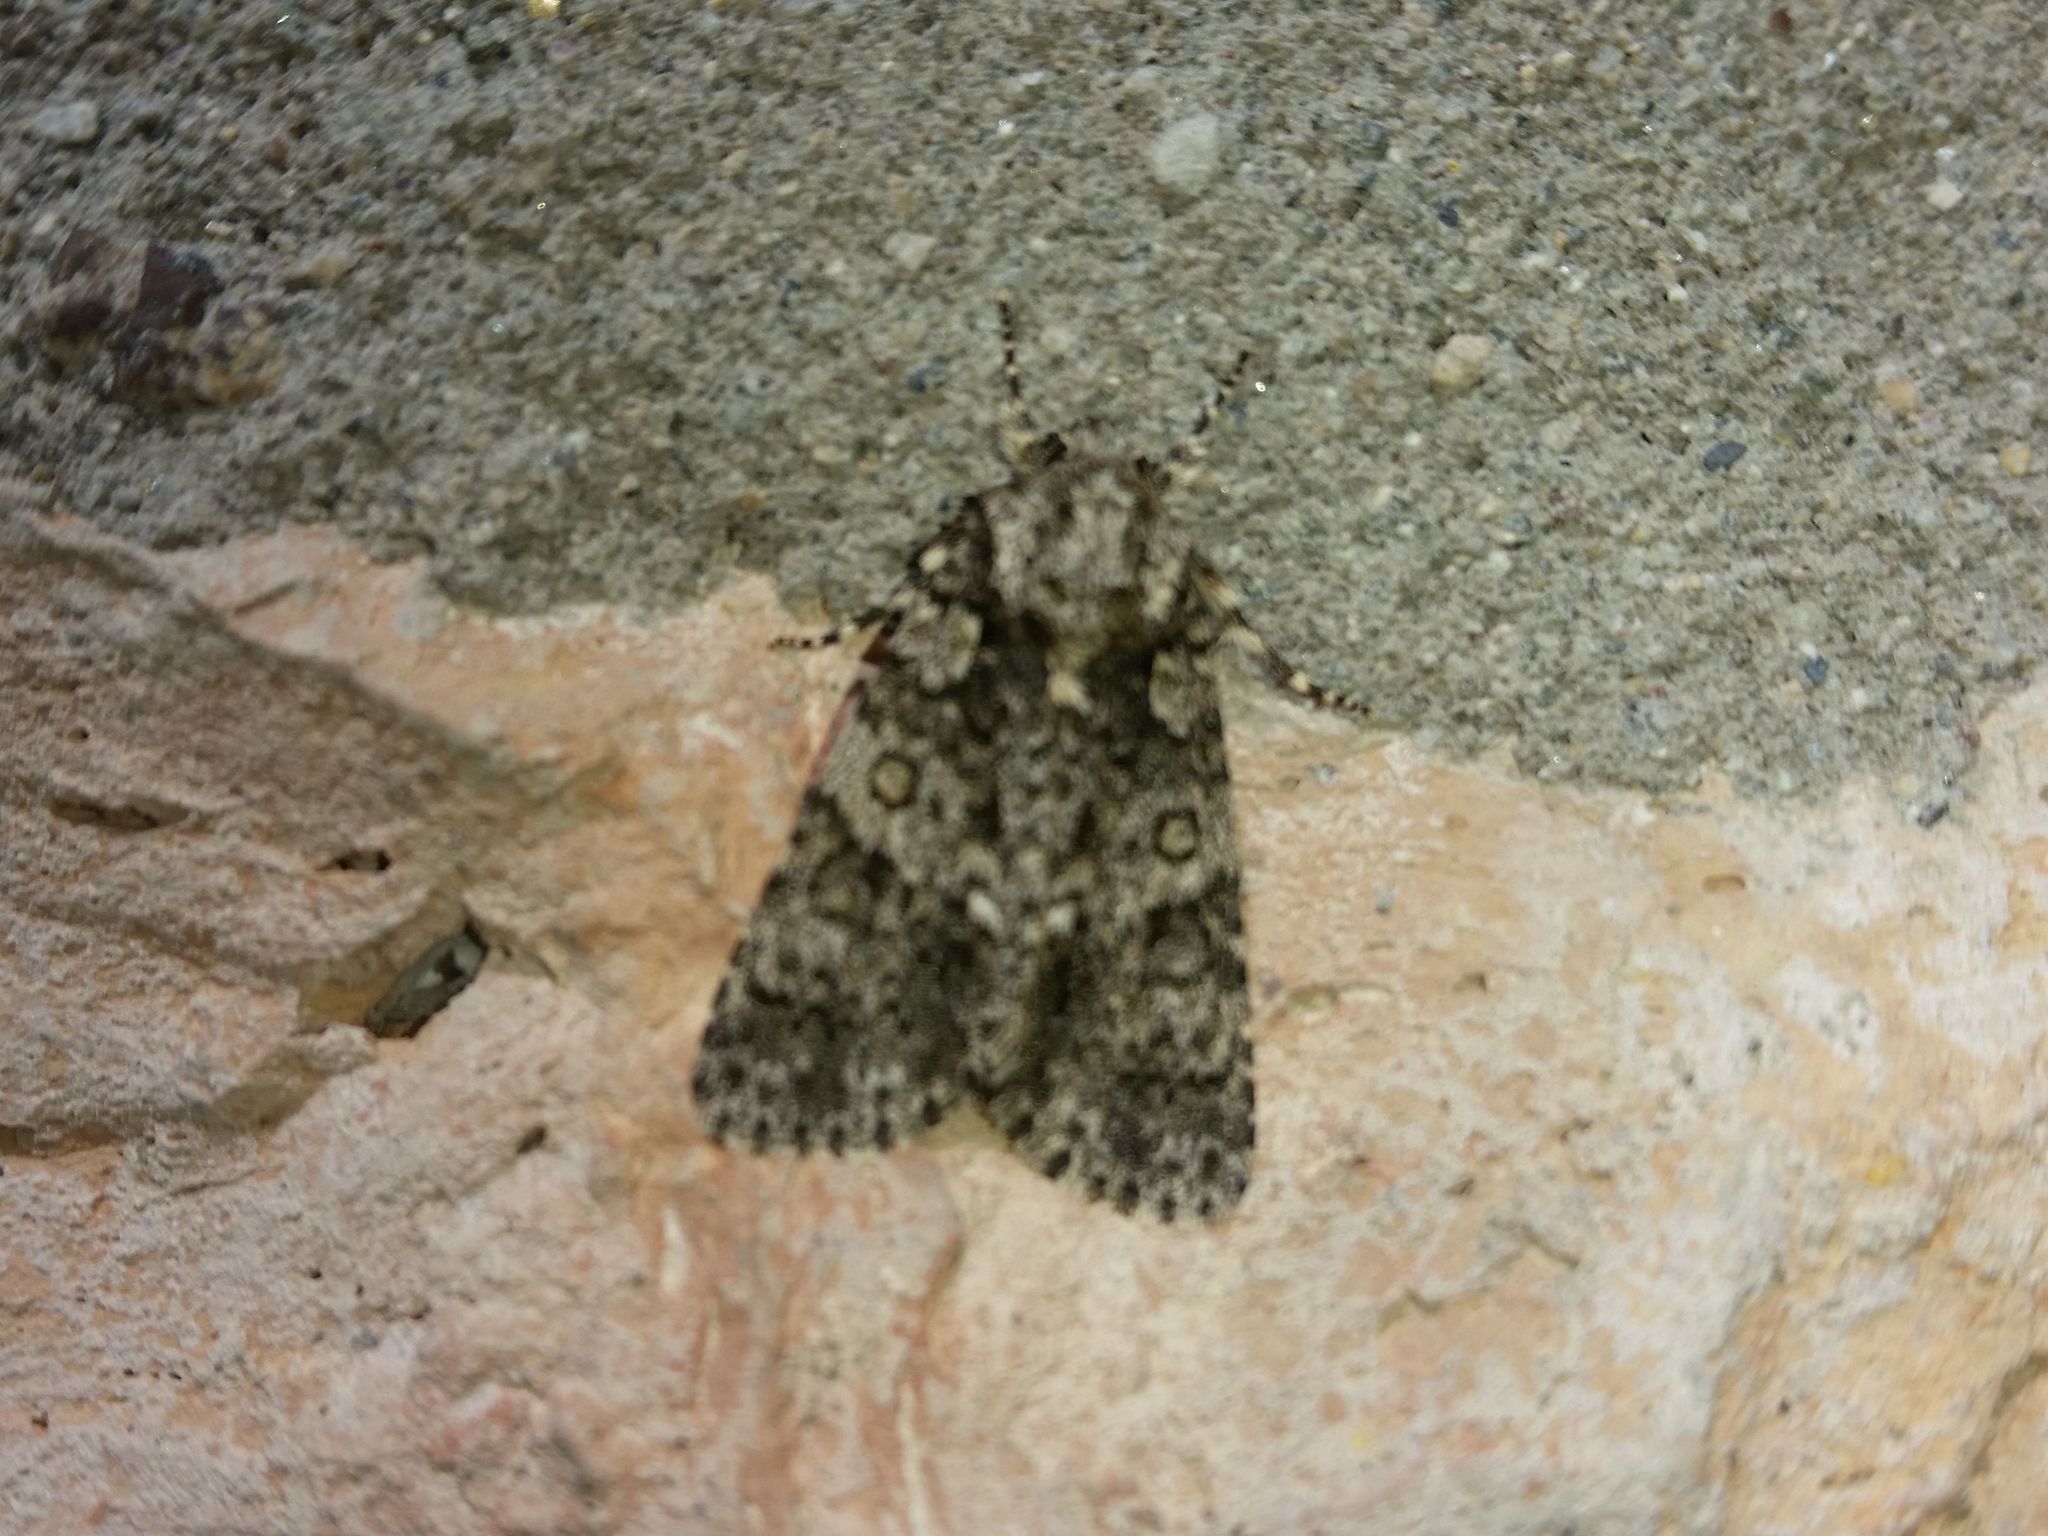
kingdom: Animalia
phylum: Arthropoda
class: Insecta
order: Lepidoptera
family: Noctuidae
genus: Acronicta
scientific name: Acronicta rumicis
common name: Knot grass
